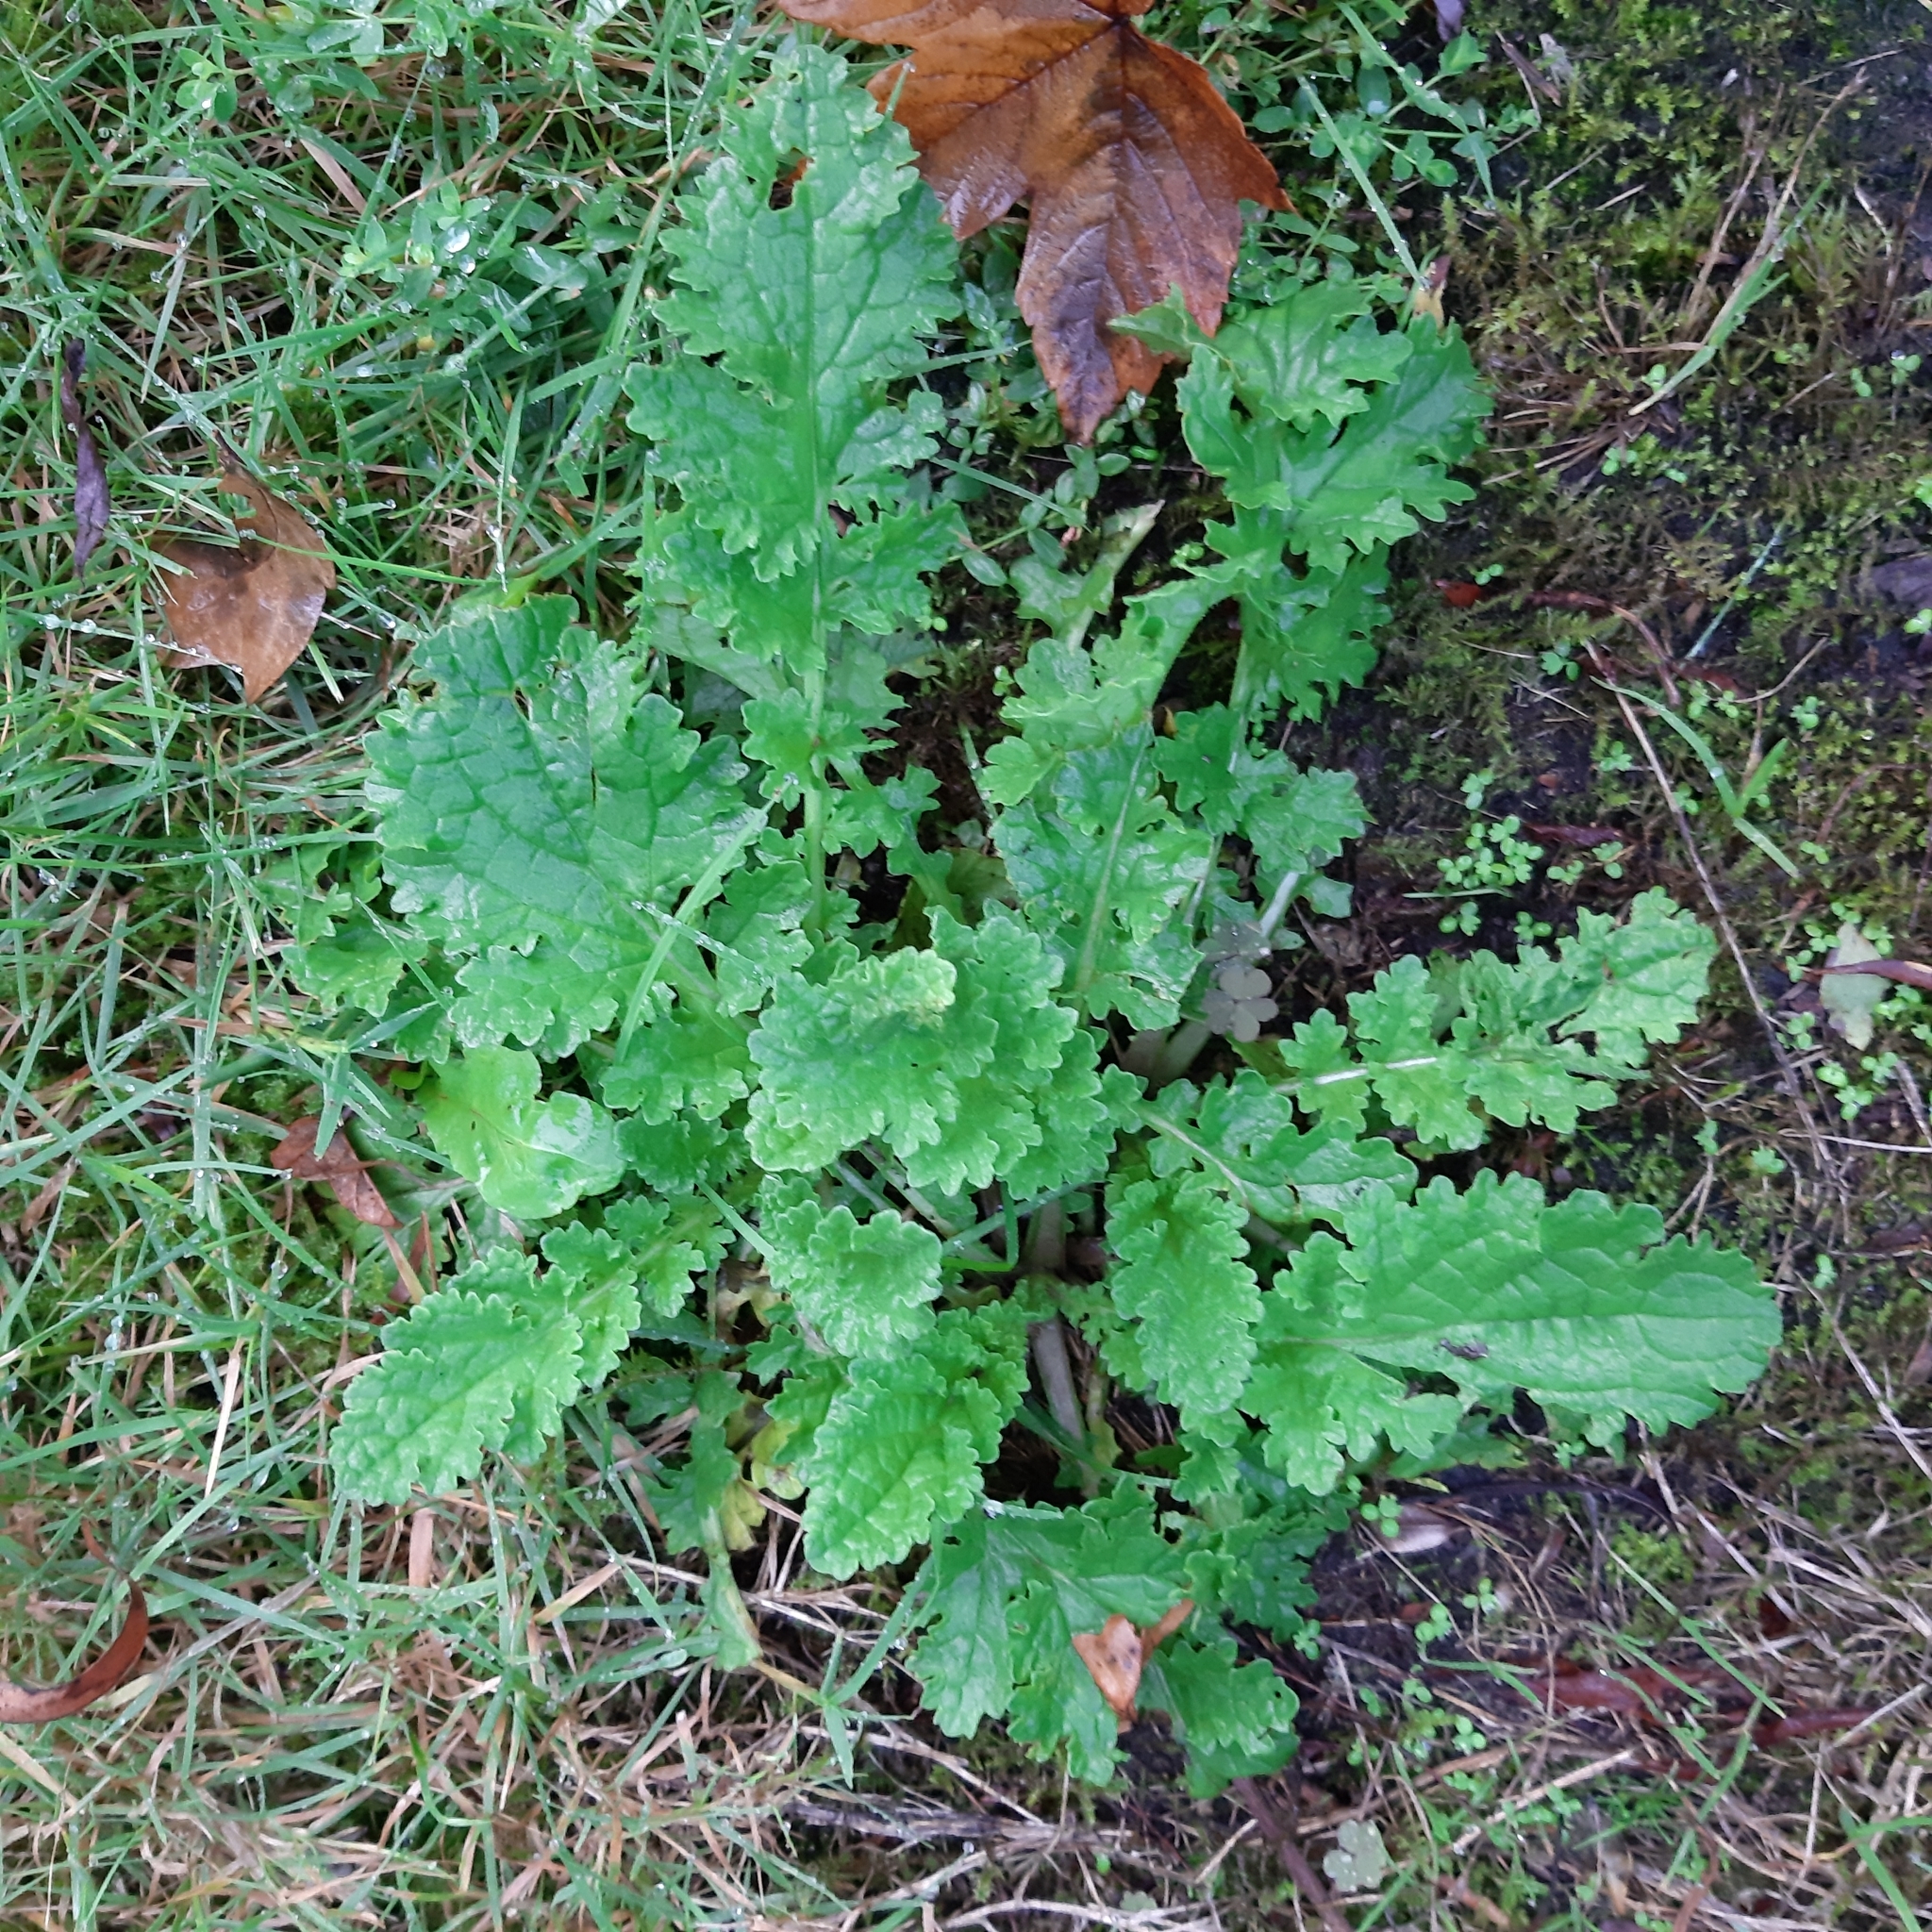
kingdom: Plantae
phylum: Tracheophyta
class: Magnoliopsida
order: Asterales
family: Asteraceae
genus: Jacobaea
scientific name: Jacobaea vulgaris
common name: Stinking willie
